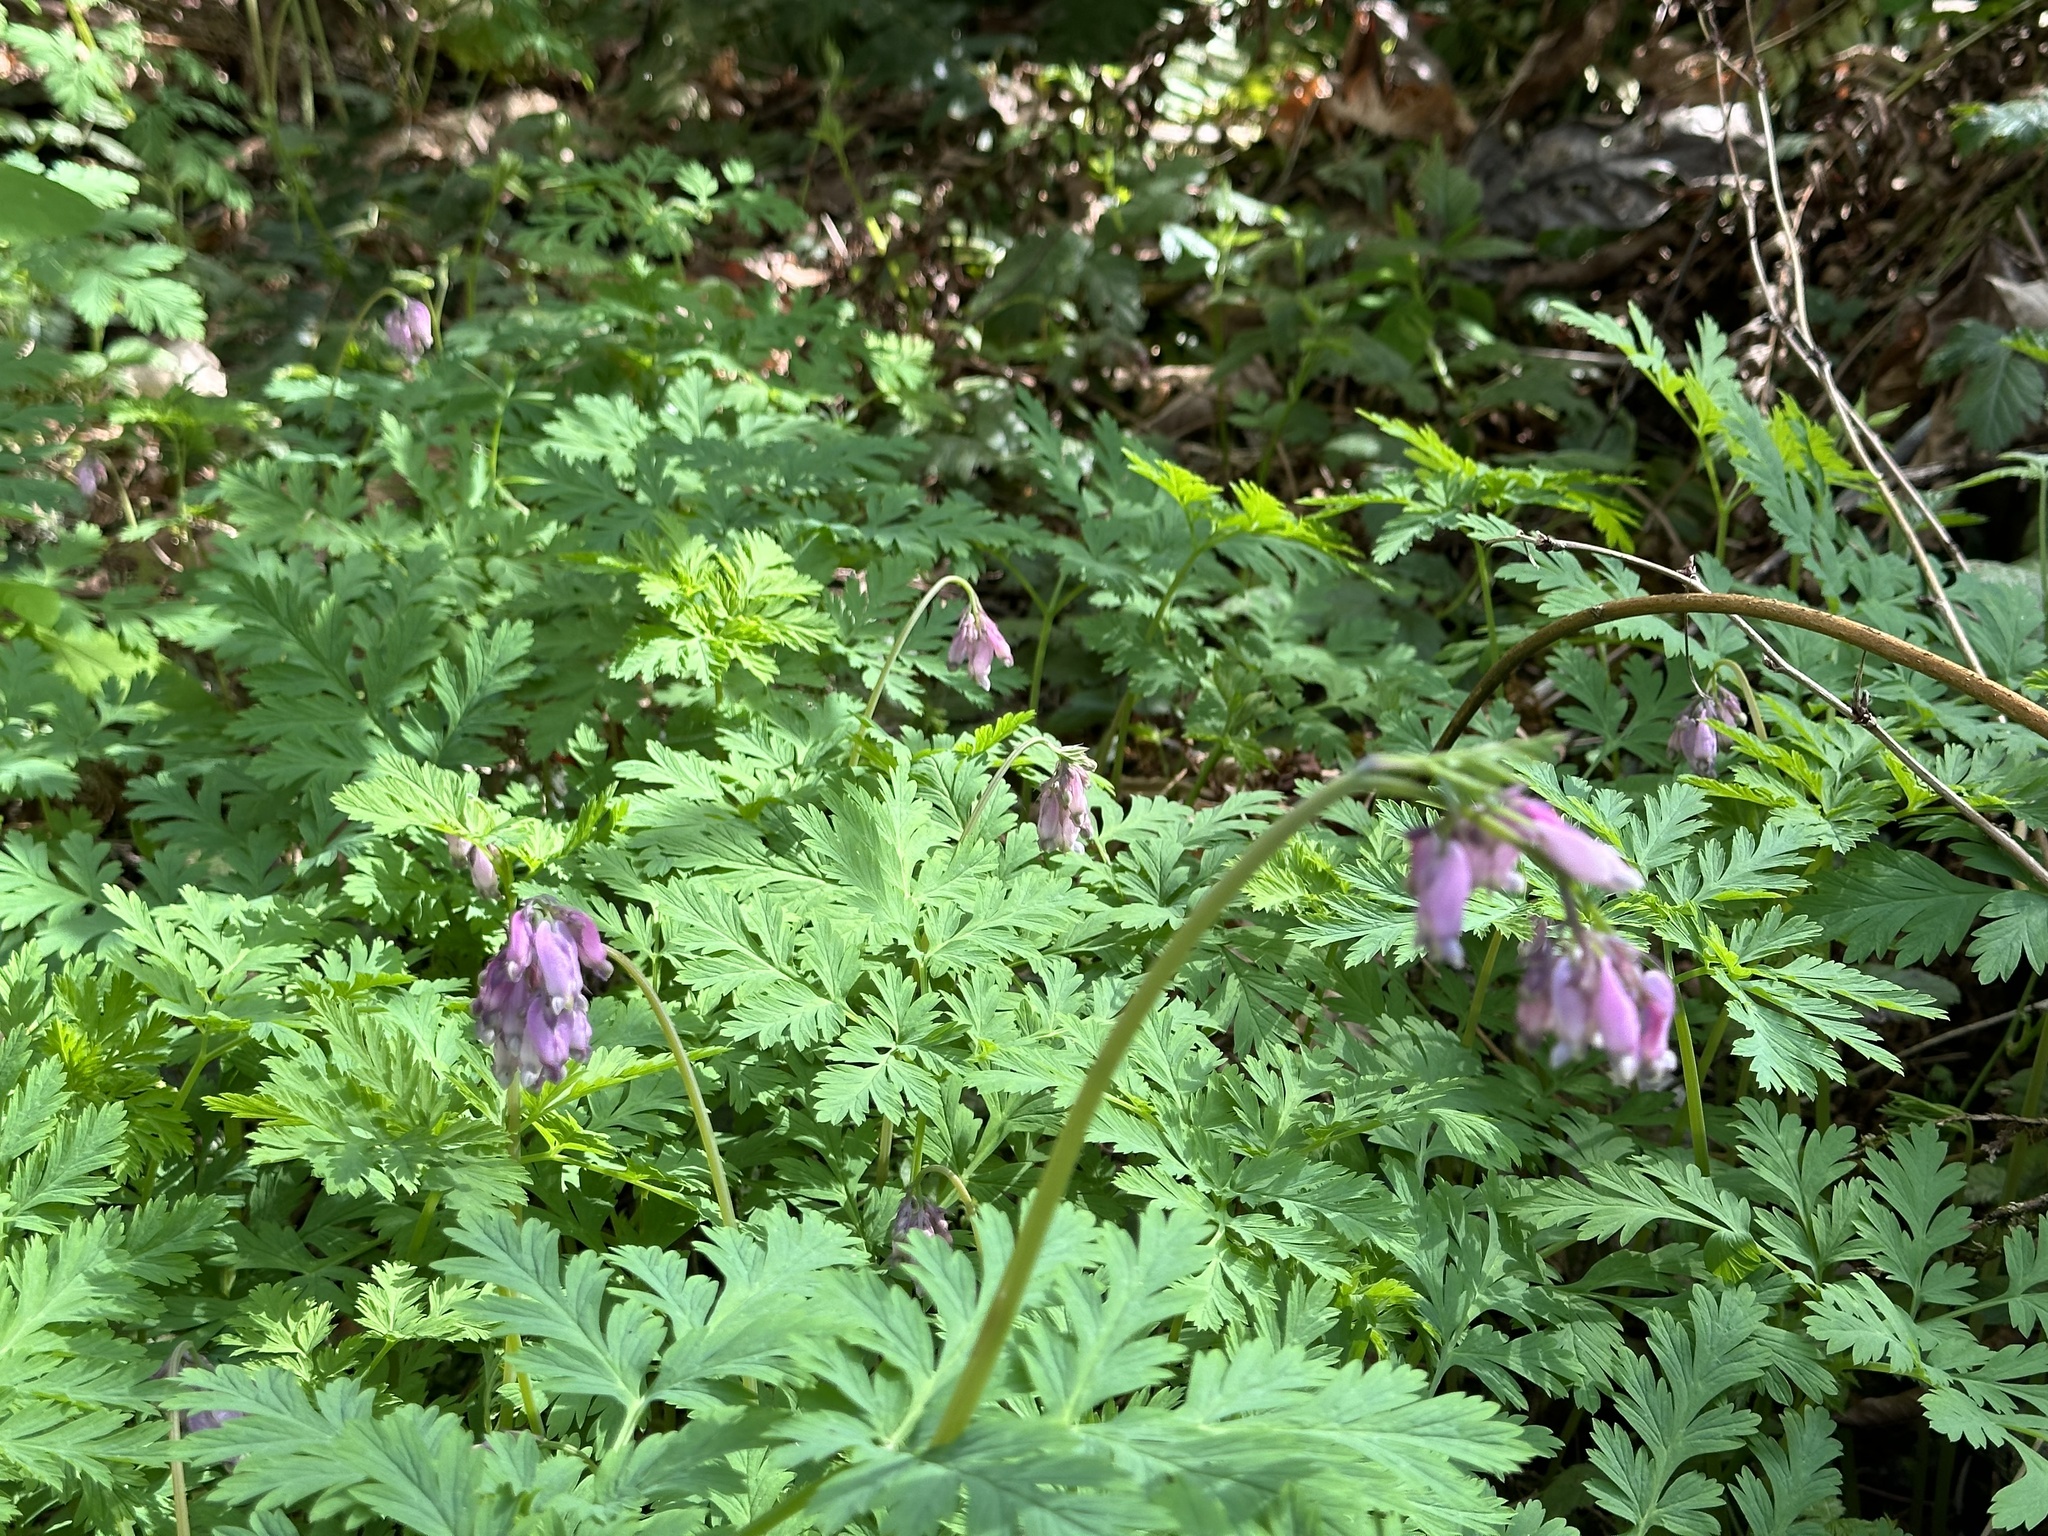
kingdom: Plantae
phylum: Tracheophyta
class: Magnoliopsida
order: Ranunculales
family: Papaveraceae
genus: Dicentra
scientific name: Dicentra formosa
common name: Bleeding-heart
